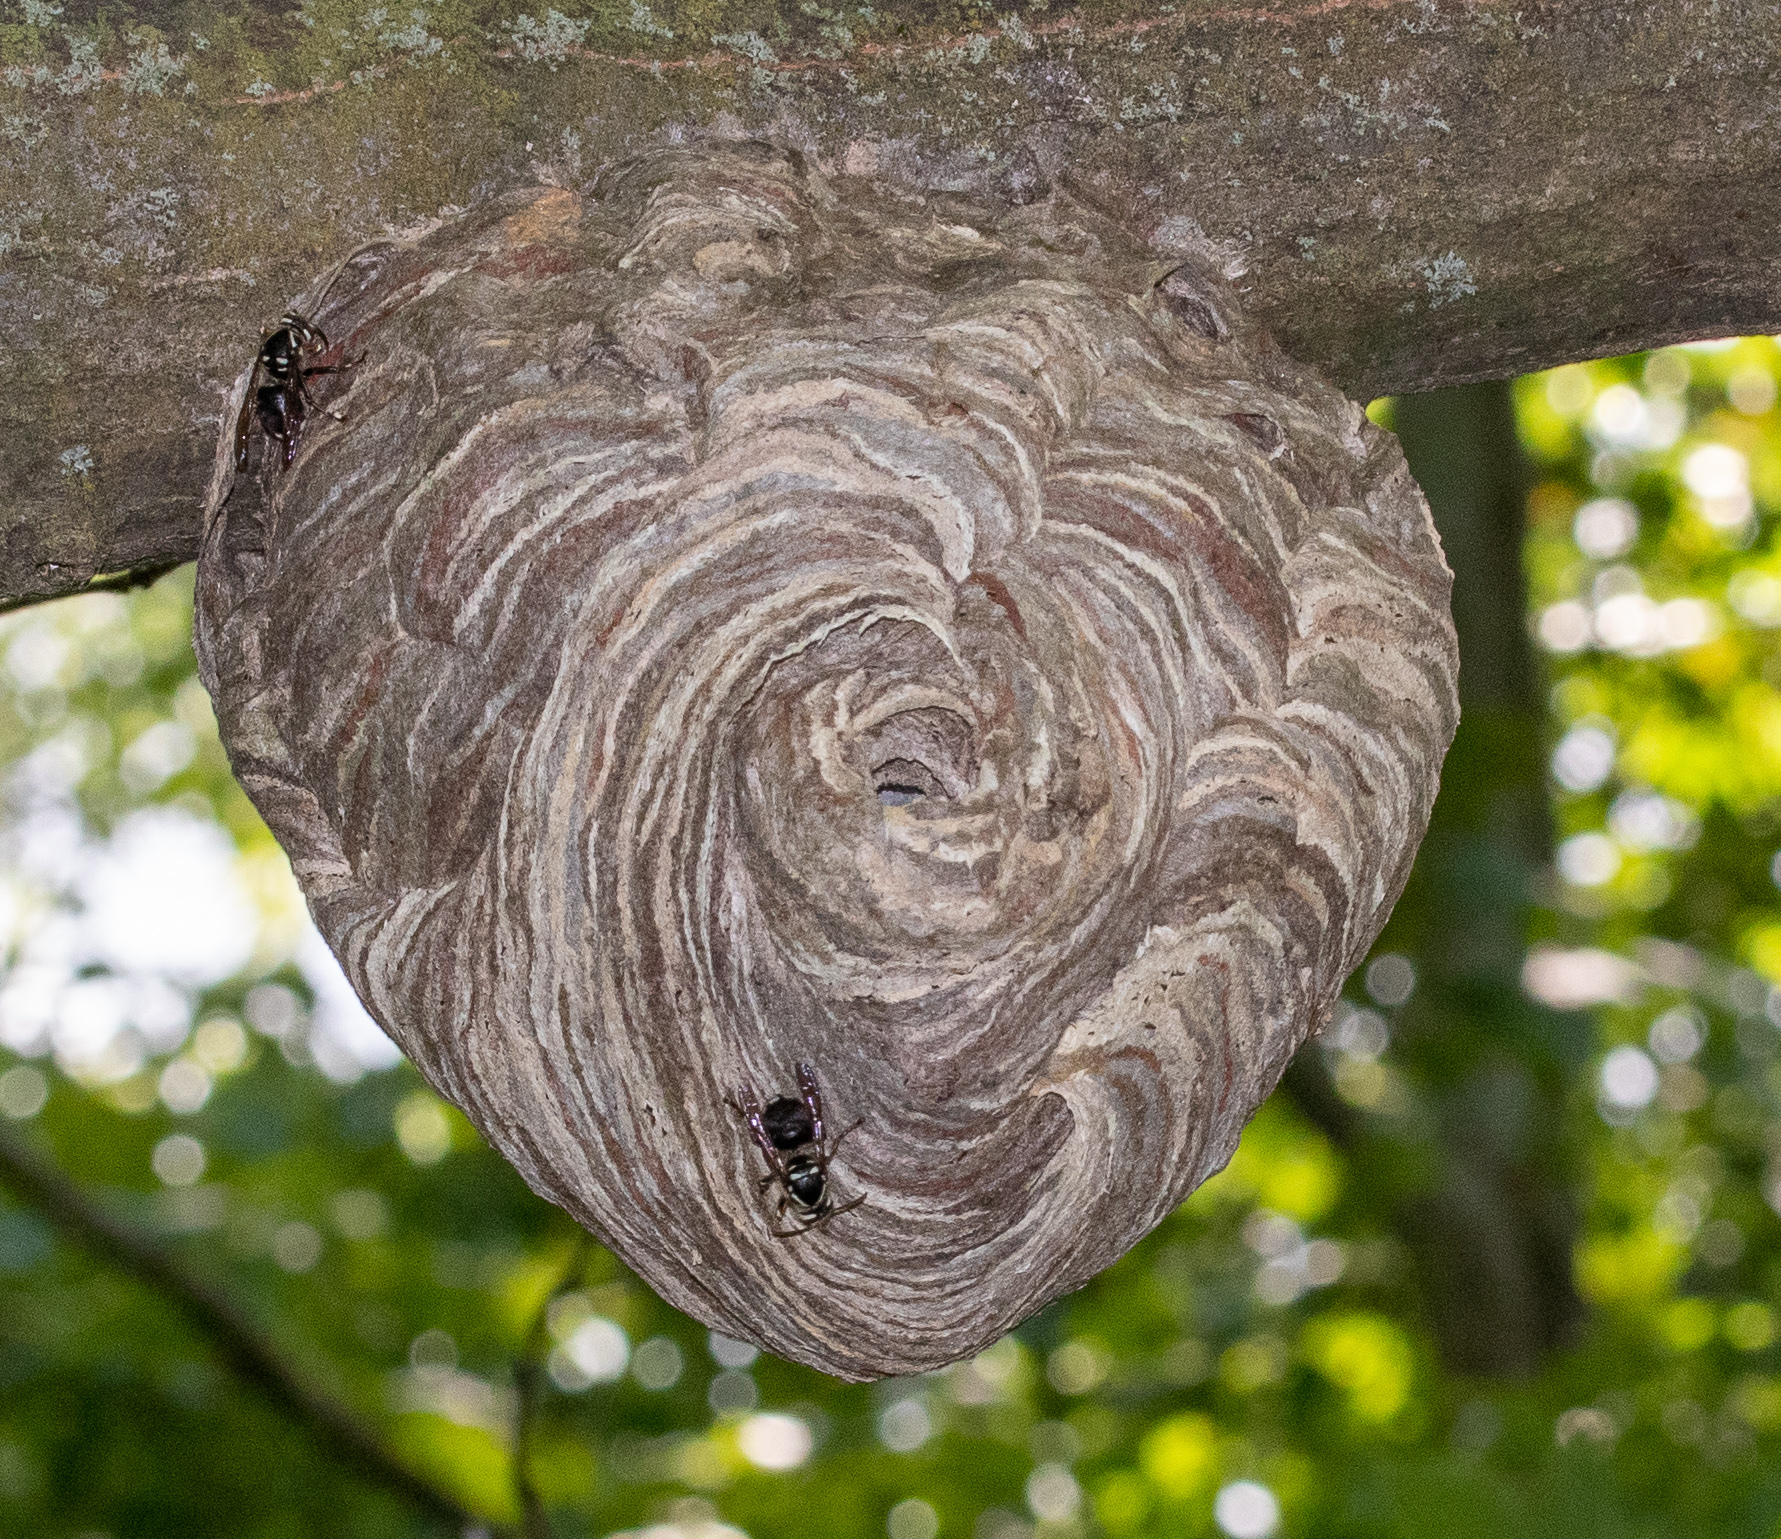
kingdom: Animalia
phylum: Arthropoda
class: Insecta
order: Hymenoptera
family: Vespidae
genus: Dolichovespula
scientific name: Dolichovespula maculata
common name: Bald-faced hornet
